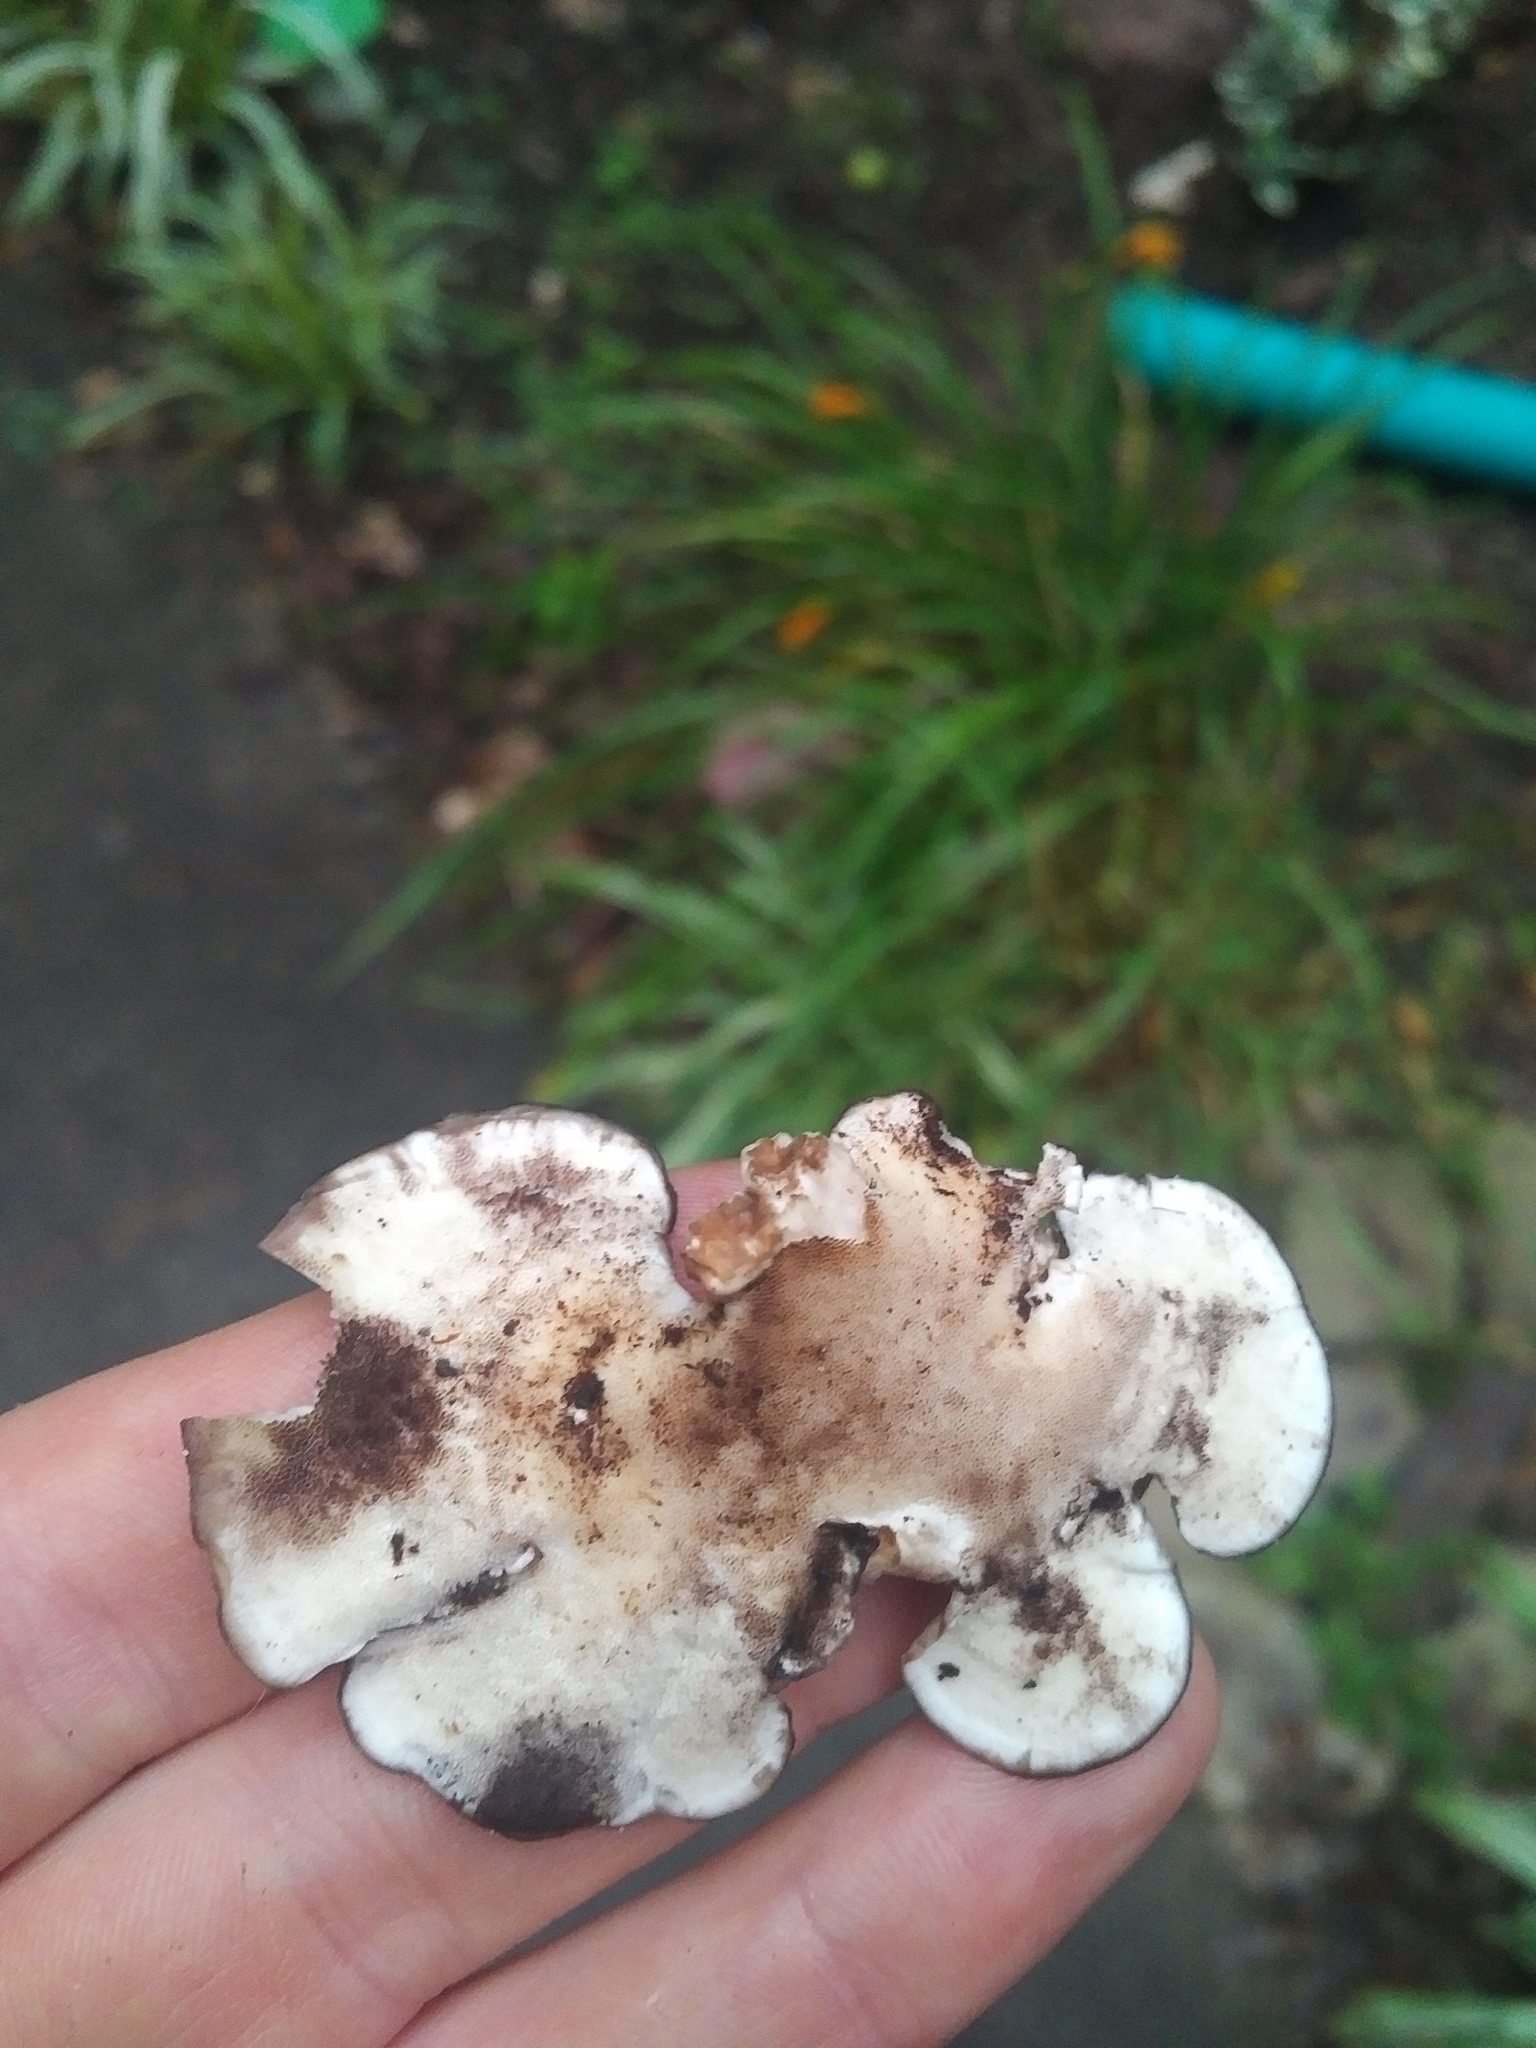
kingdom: Fungi
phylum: Basidiomycota
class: Agaricomycetes
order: Polyporales
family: Steccherinaceae
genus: Mycorrhaphium
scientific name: Mycorrhaphium adustum
